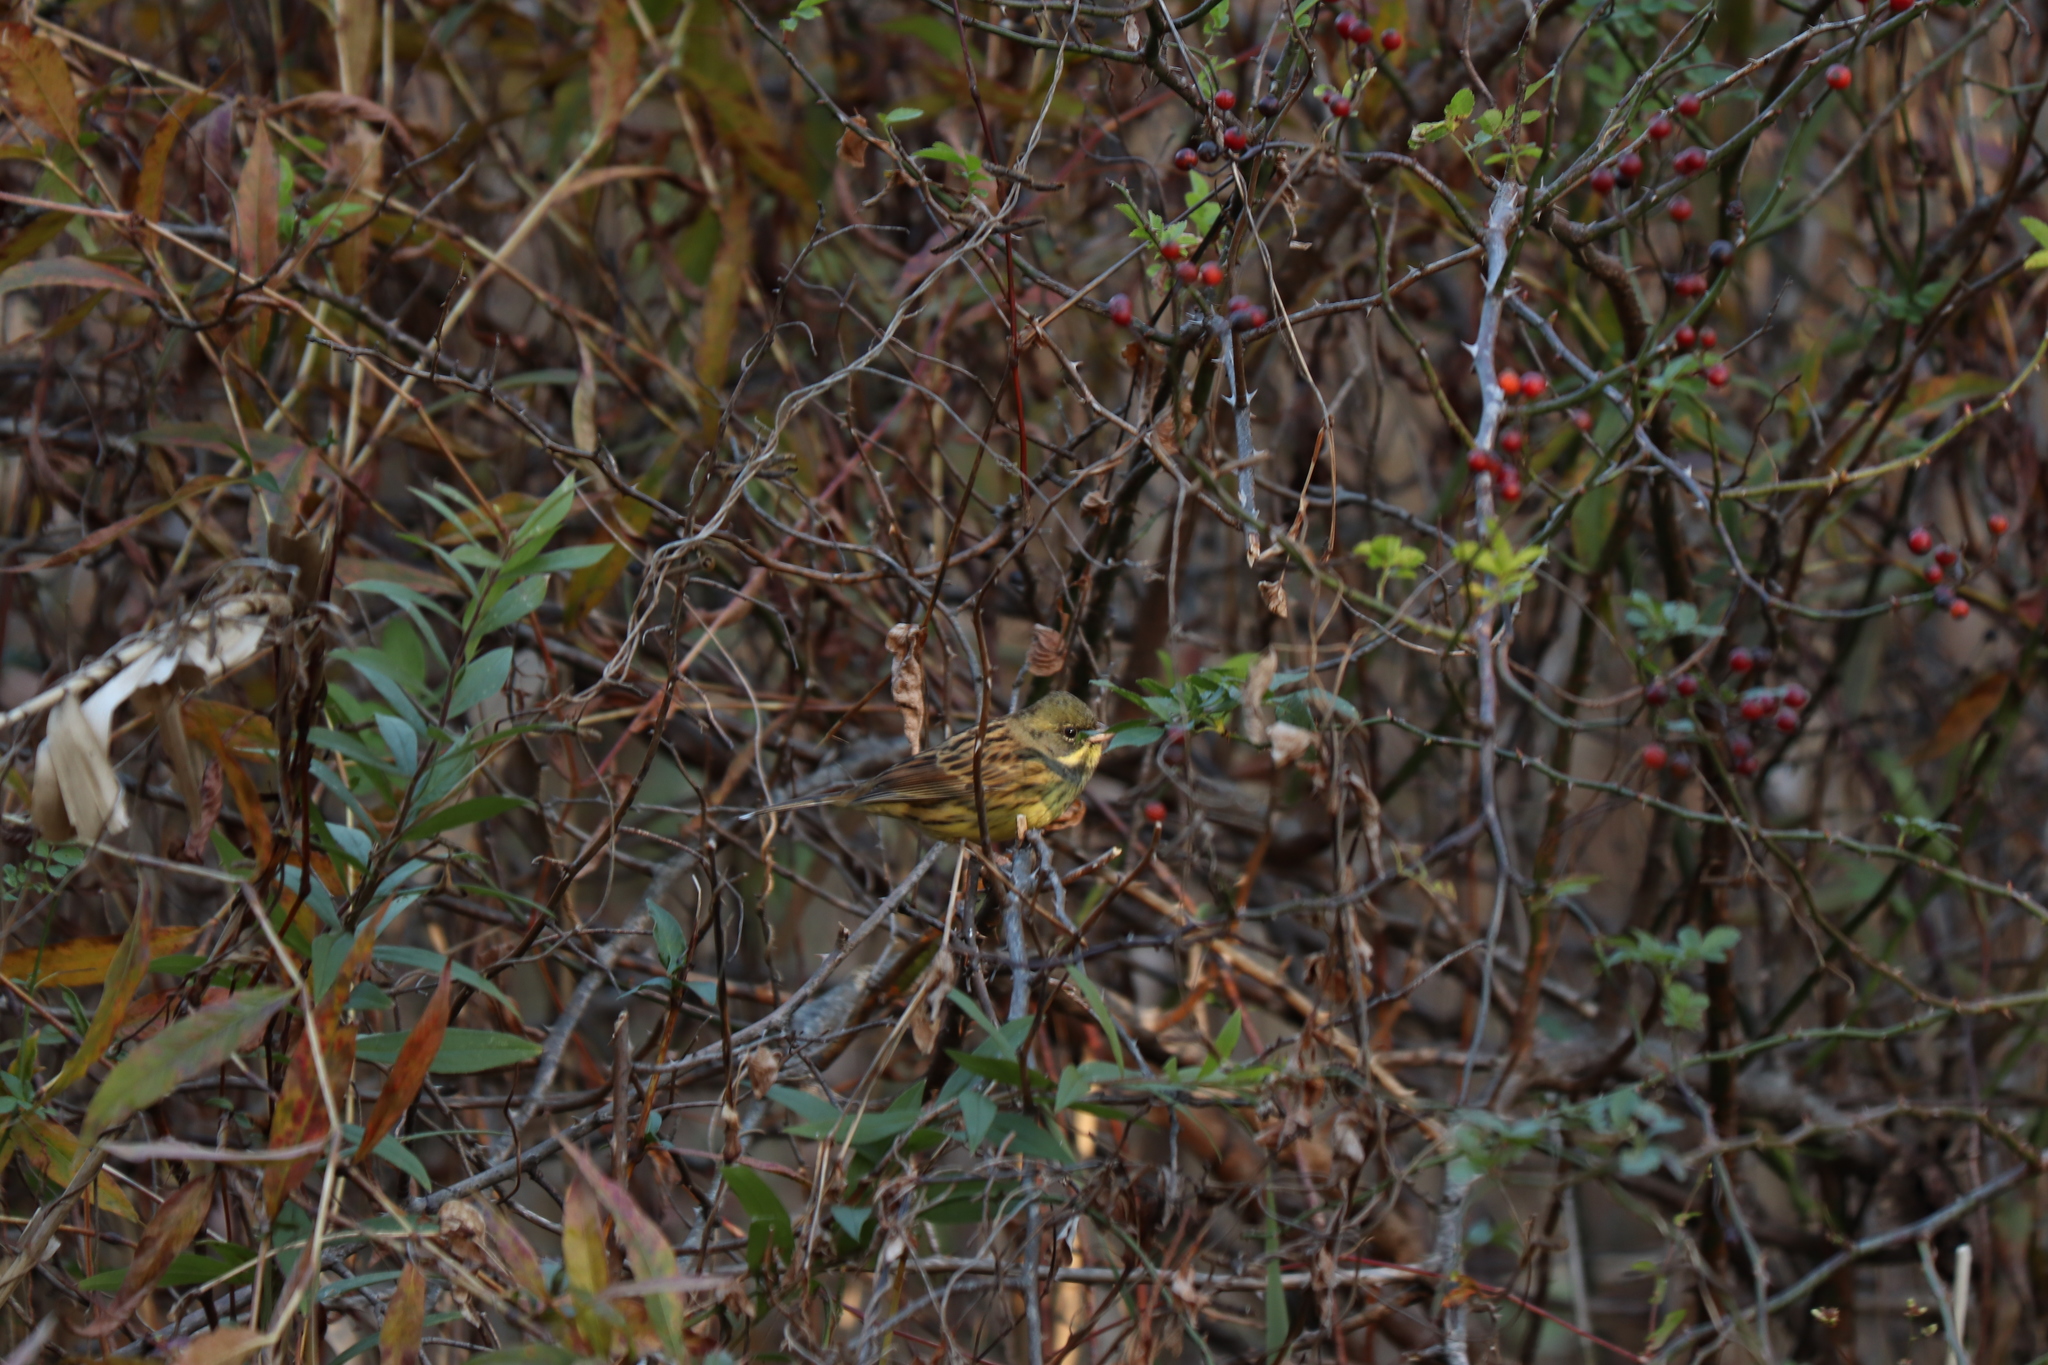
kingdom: Animalia
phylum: Chordata
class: Aves
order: Passeriformes
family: Emberizidae
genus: Emberiza
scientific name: Emberiza personata
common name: Masked bunting
